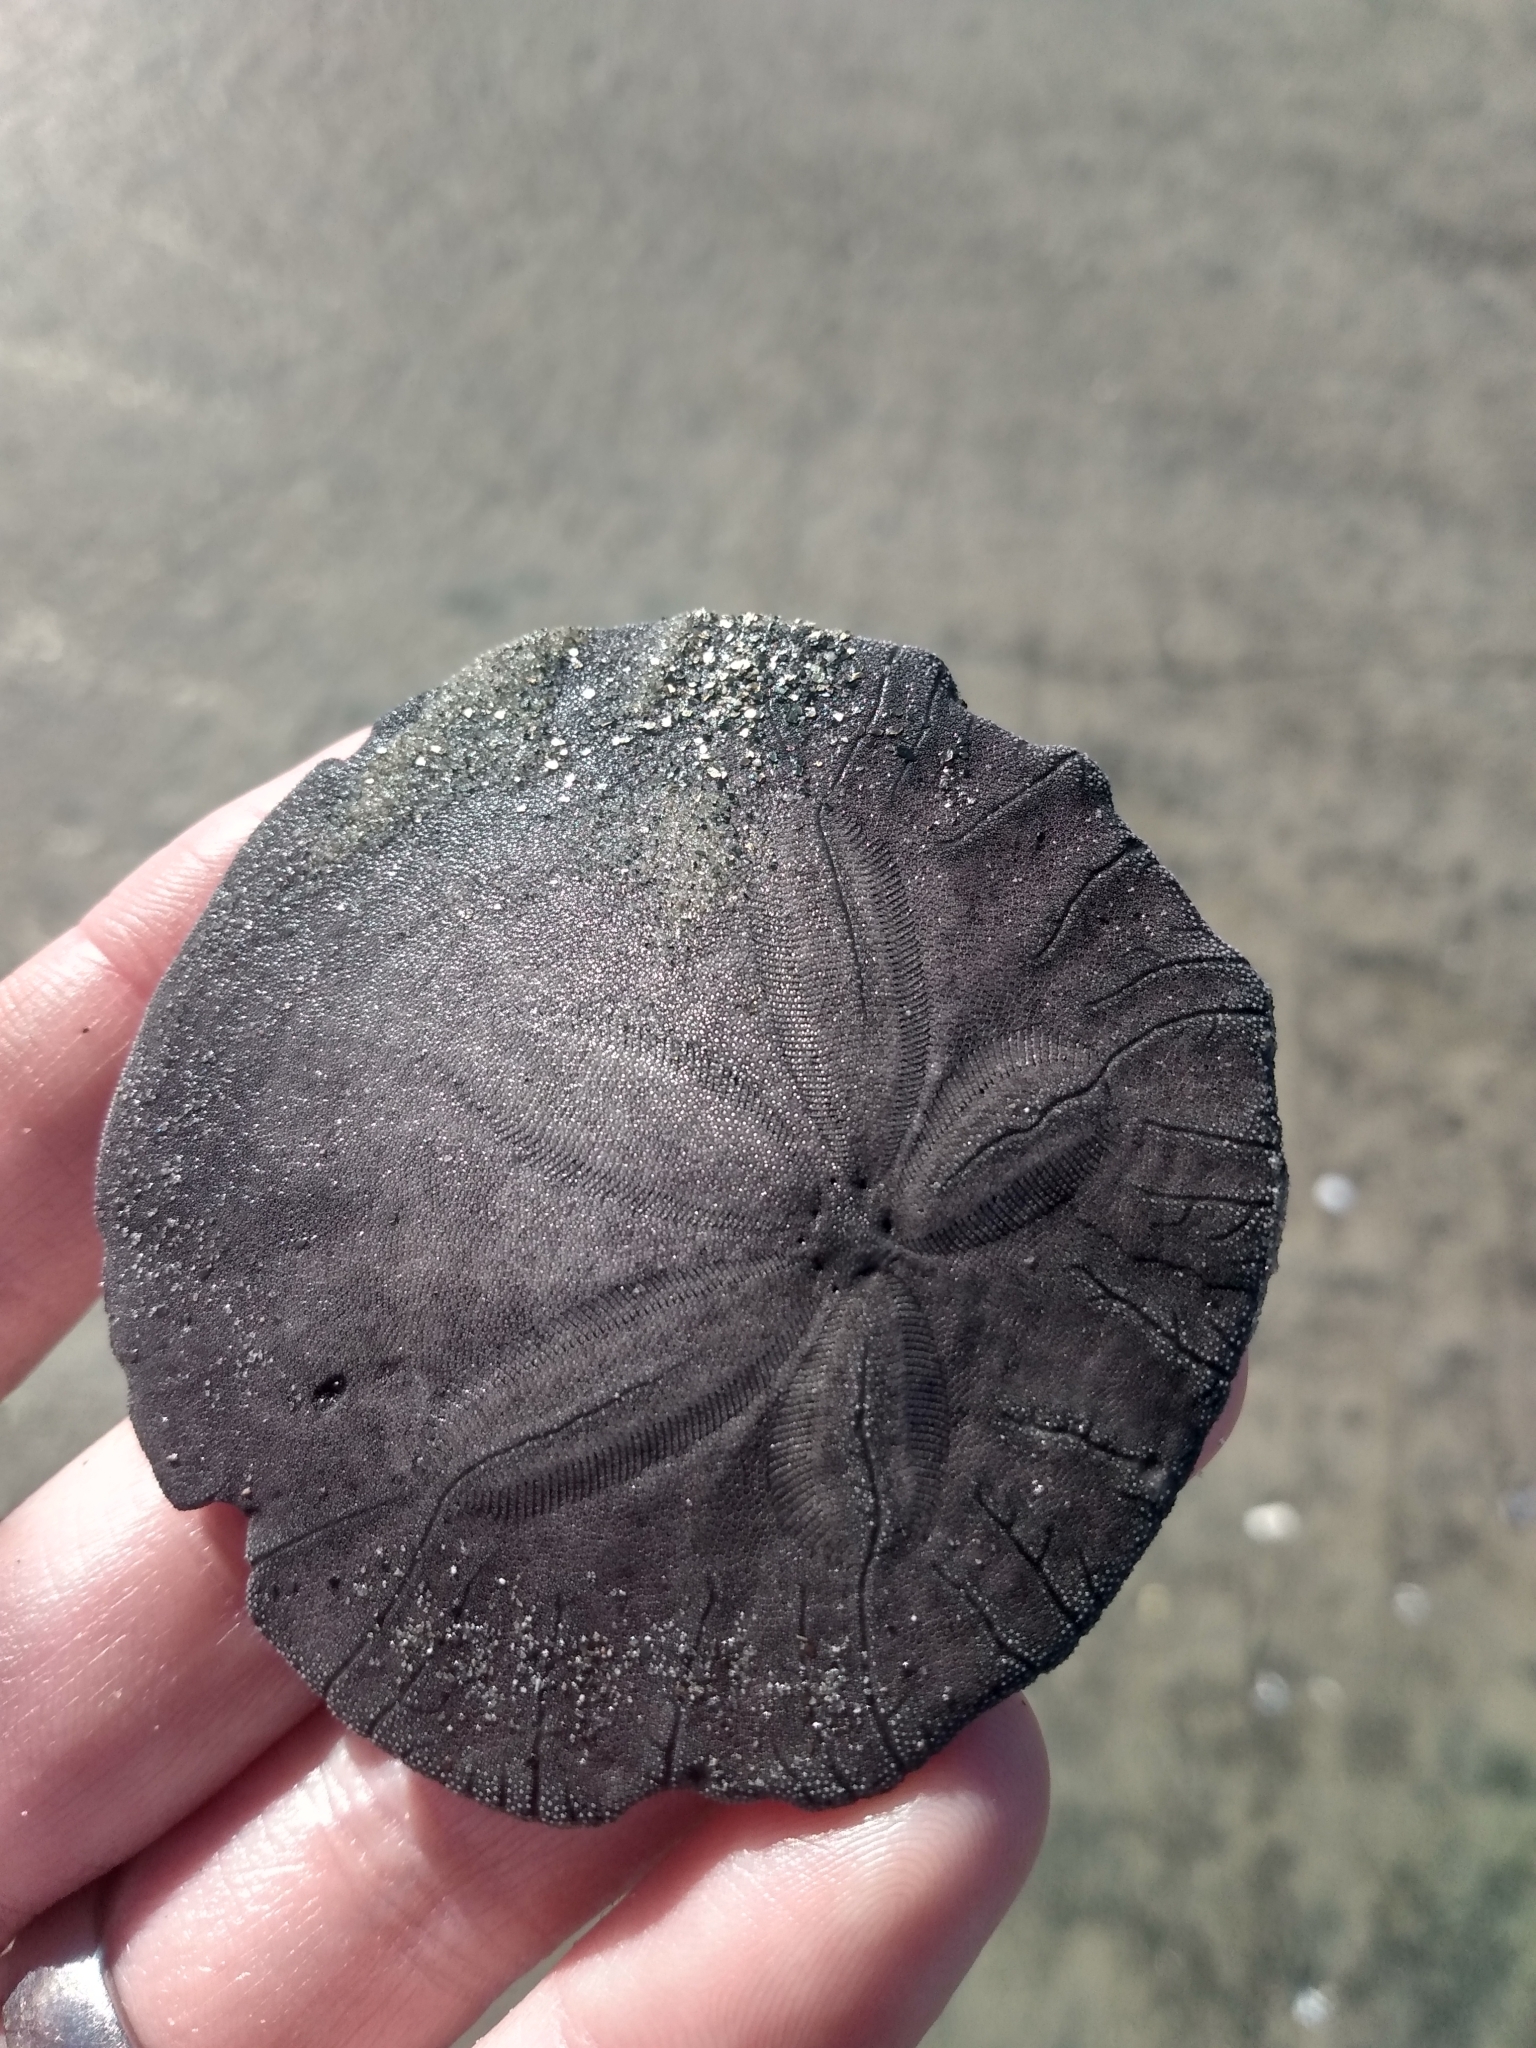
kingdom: Animalia
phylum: Echinodermata
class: Echinoidea
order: Echinolampadacea
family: Dendrasteridae
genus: Dendraster
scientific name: Dendraster excentricus
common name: Eccentric sand dollar sea urchin
